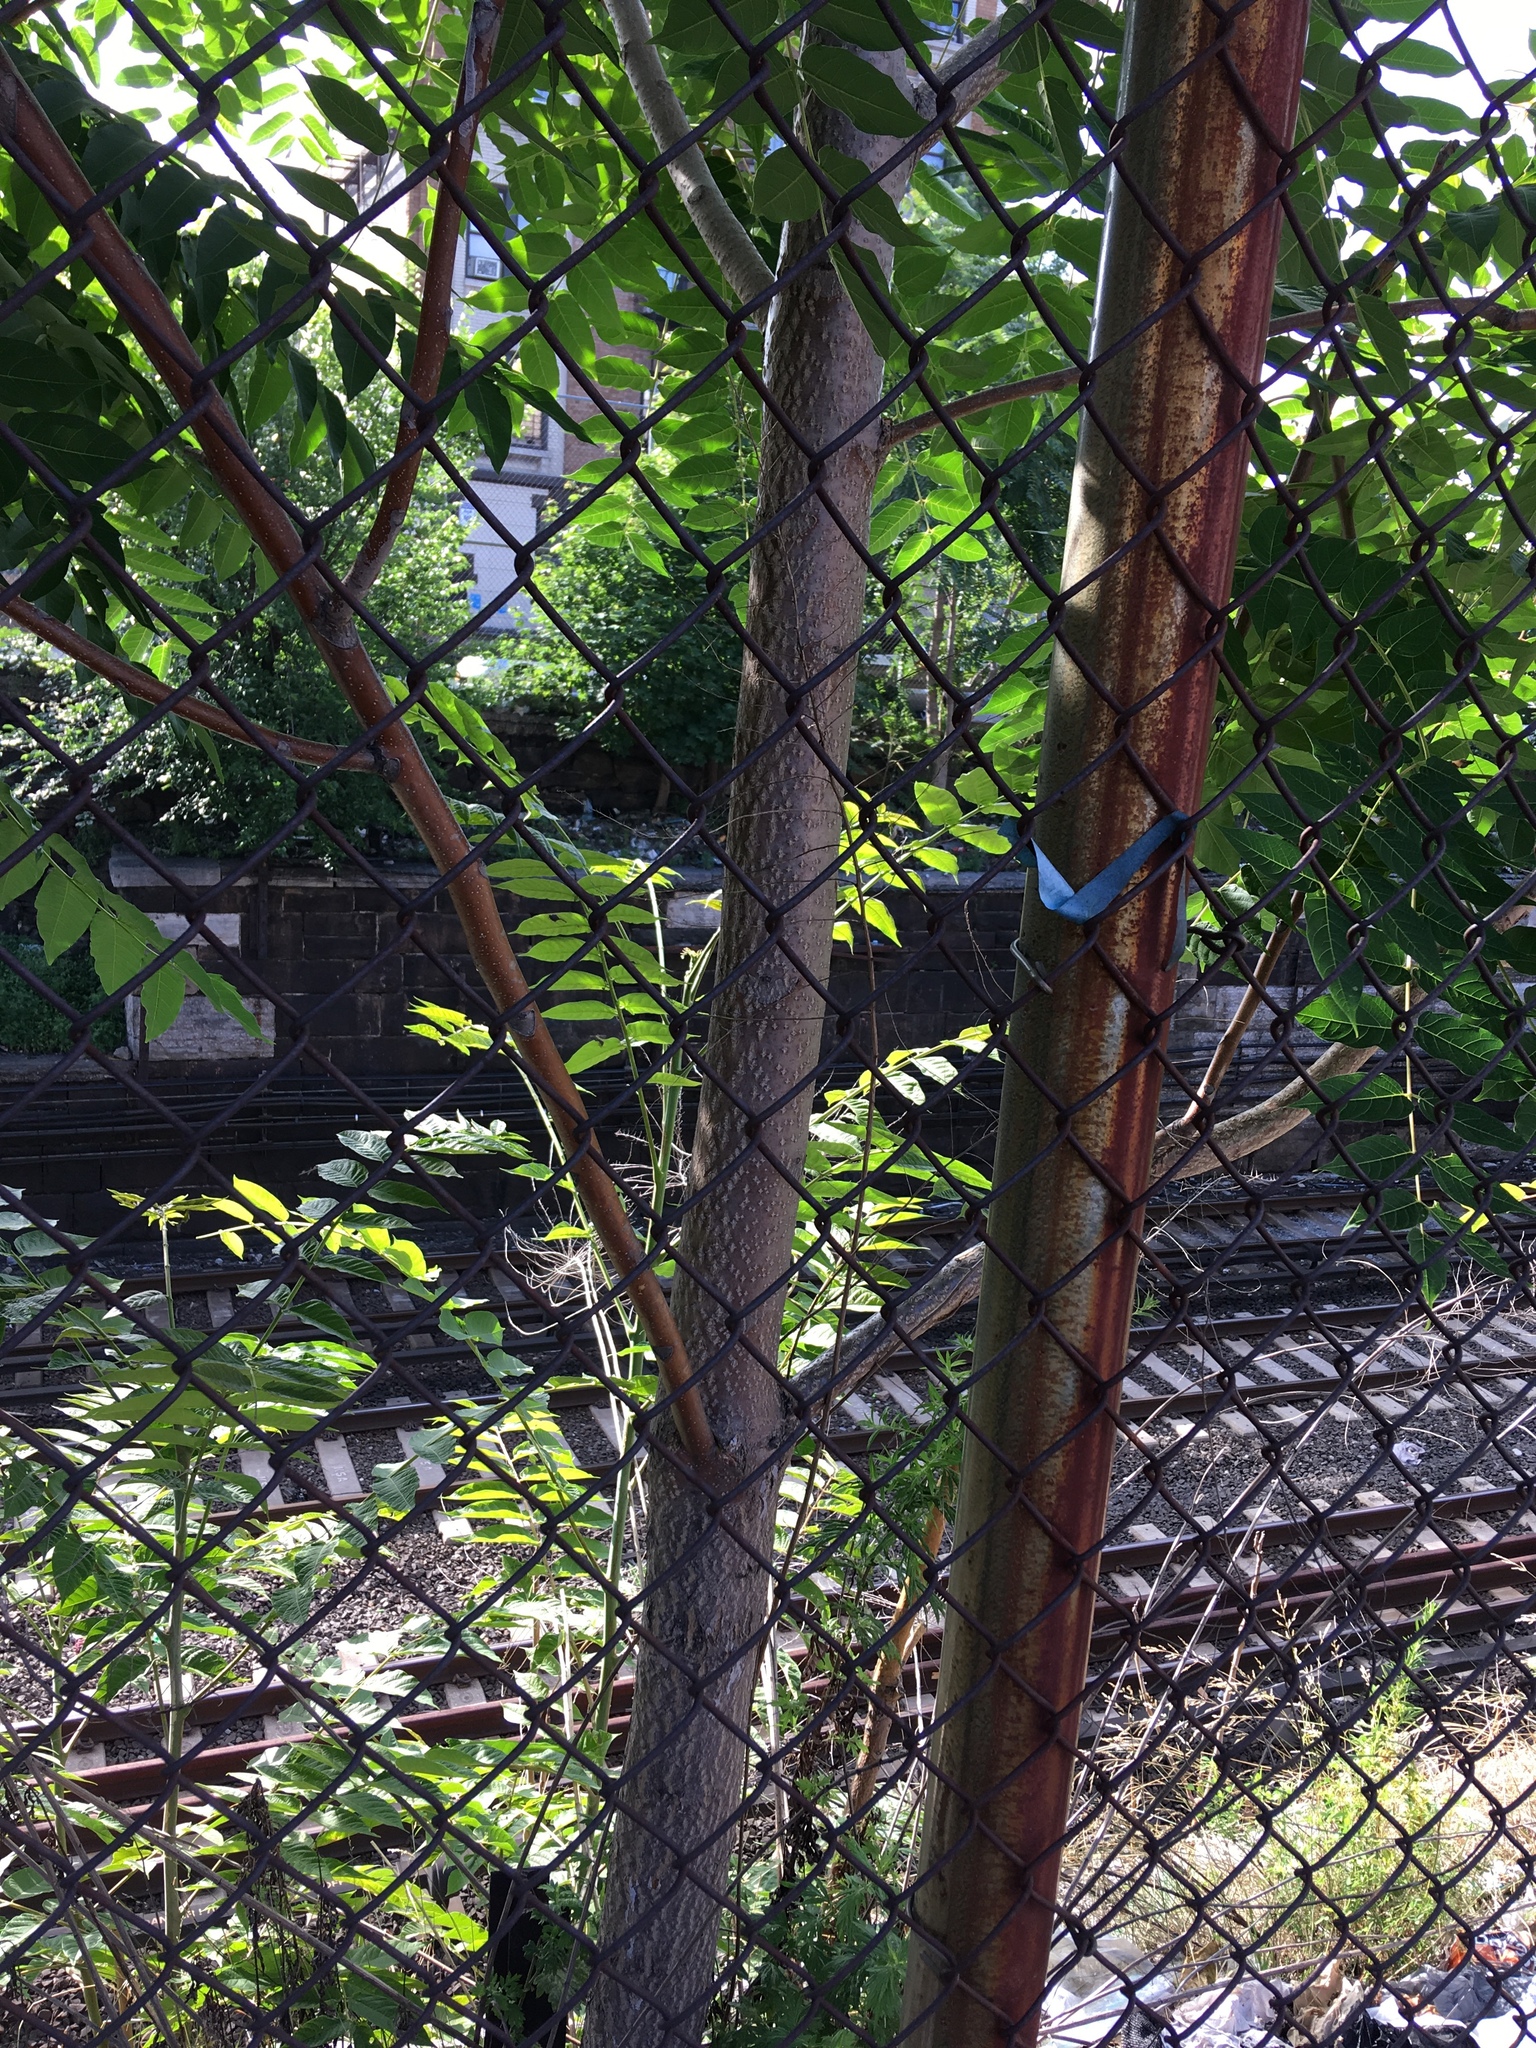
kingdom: Plantae
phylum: Tracheophyta
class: Magnoliopsida
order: Sapindales
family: Simaroubaceae
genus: Ailanthus
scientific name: Ailanthus altissima
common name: Tree-of-heaven
